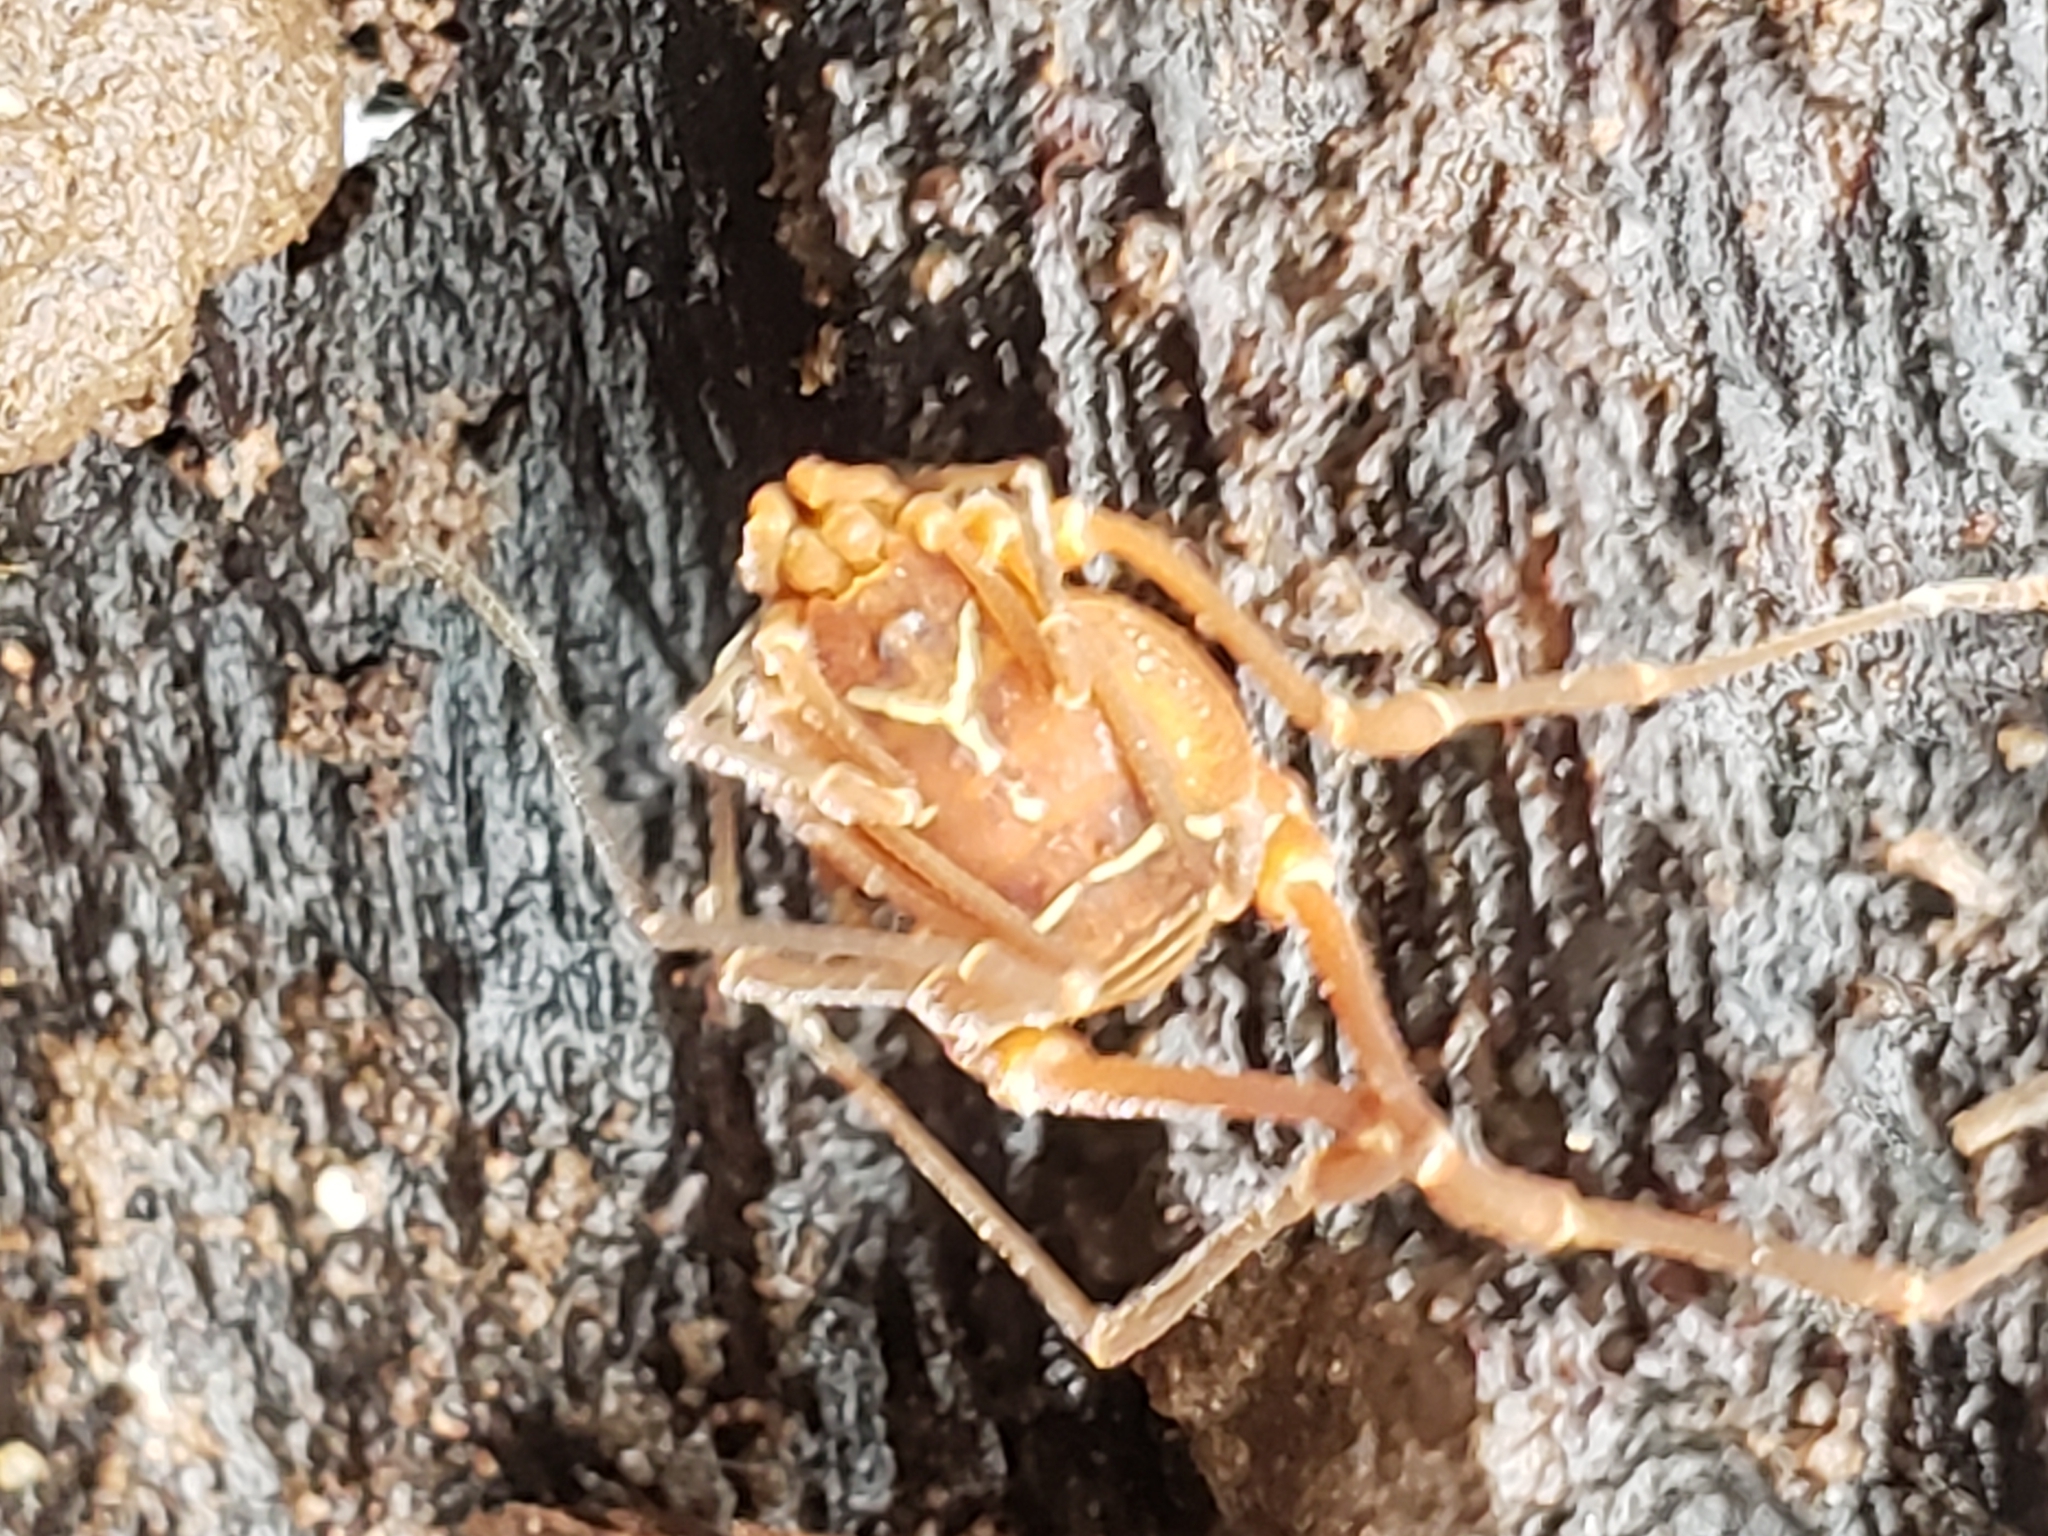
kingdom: Animalia
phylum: Arthropoda
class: Arachnida
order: Opiliones
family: Cosmetidae
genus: Libitioides
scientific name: Libitioides sayi
